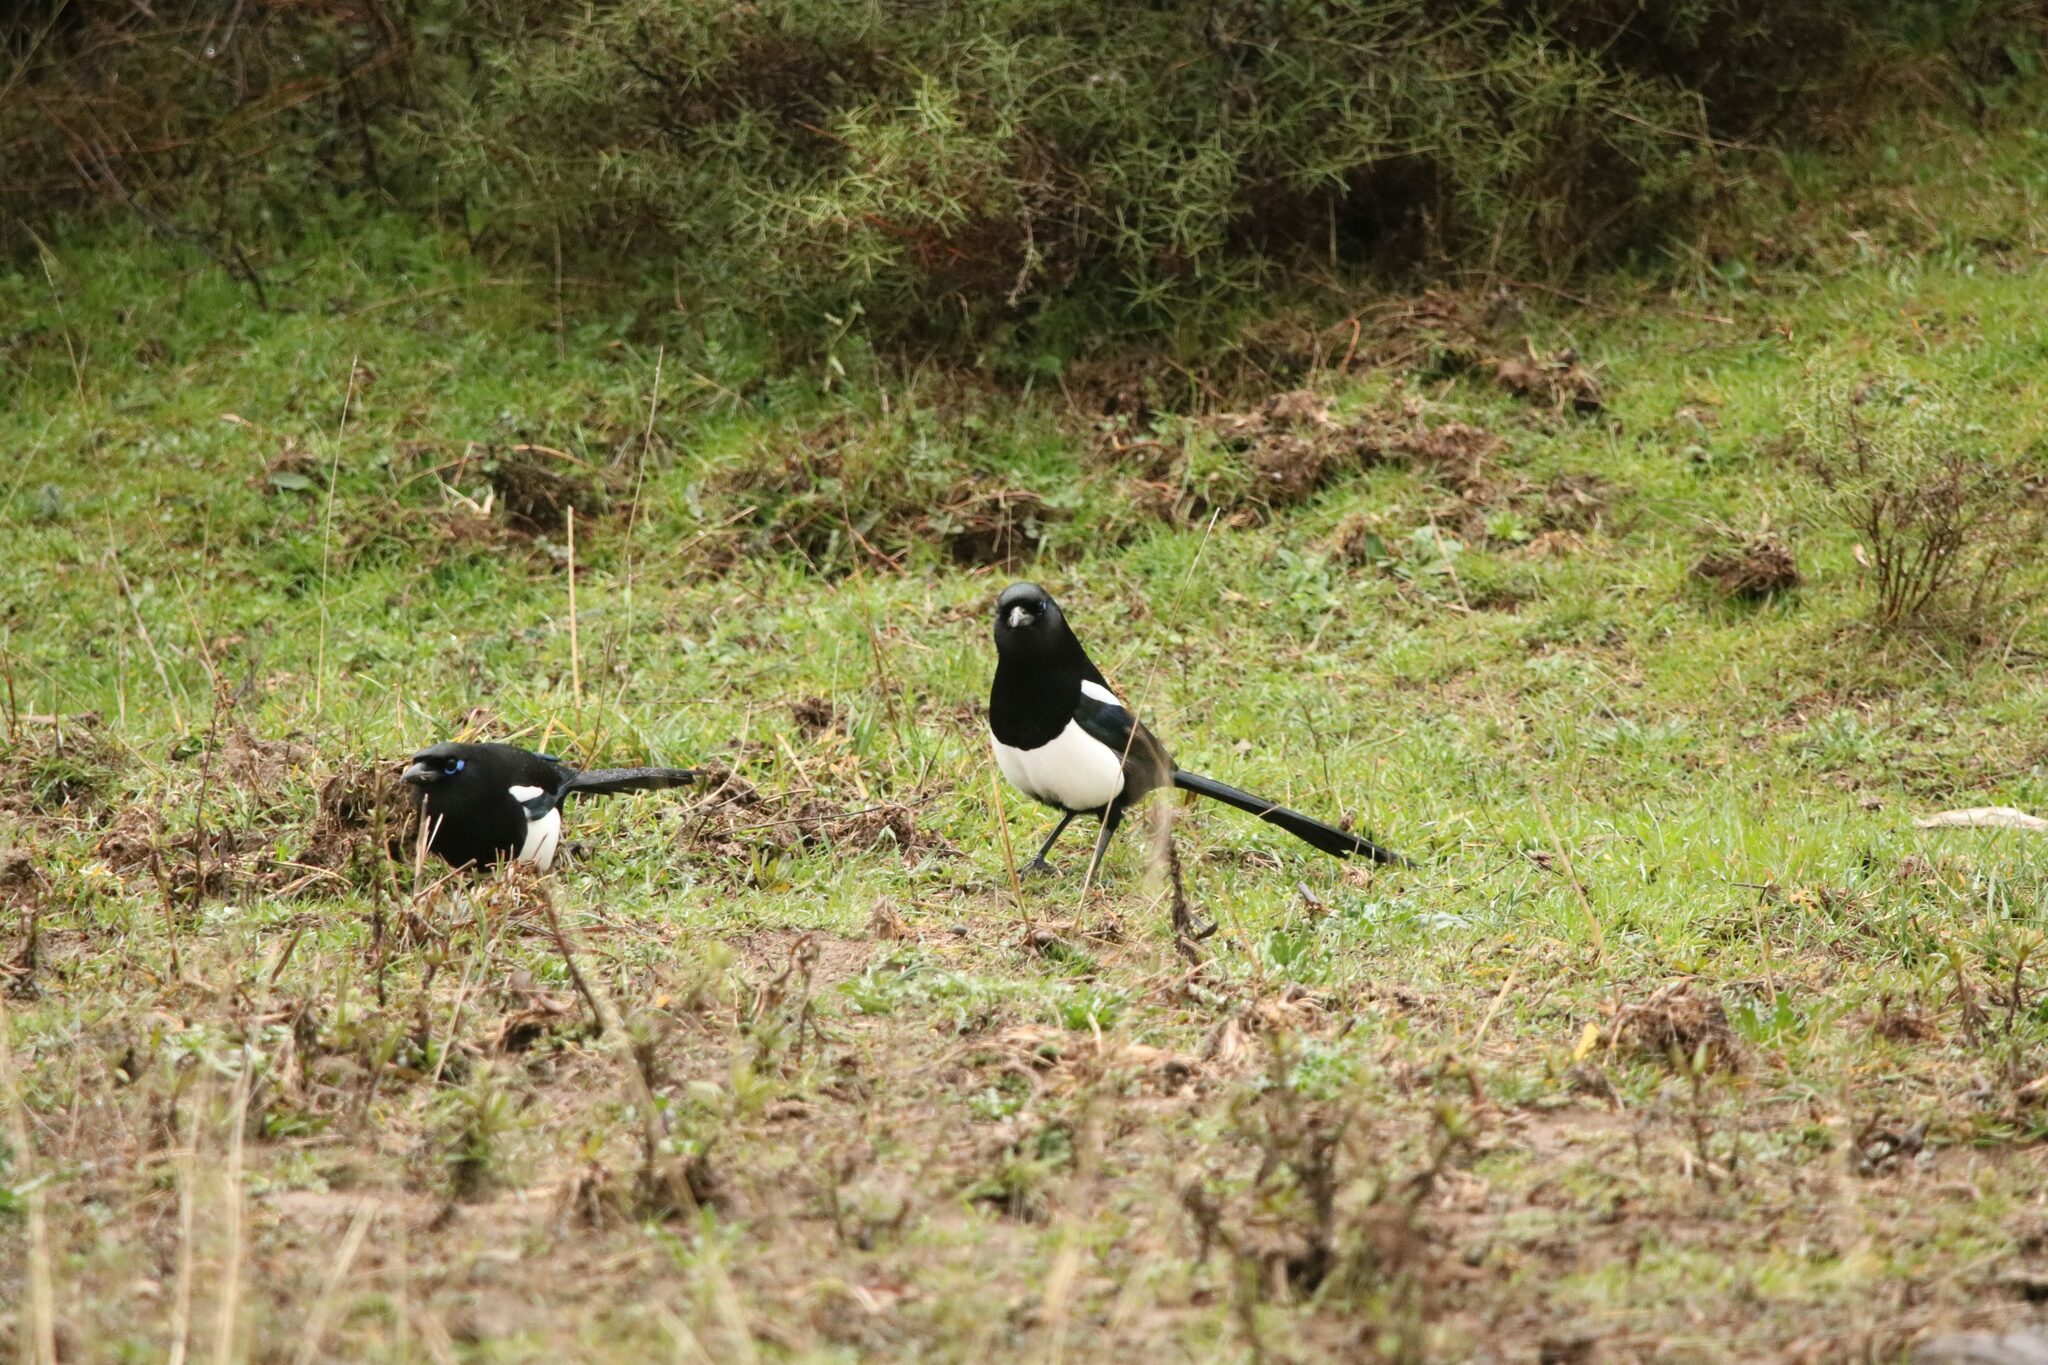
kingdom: Animalia
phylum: Chordata
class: Aves
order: Passeriformes
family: Corvidae
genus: Pica
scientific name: Pica mauritanica
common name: Maghreb magpie
